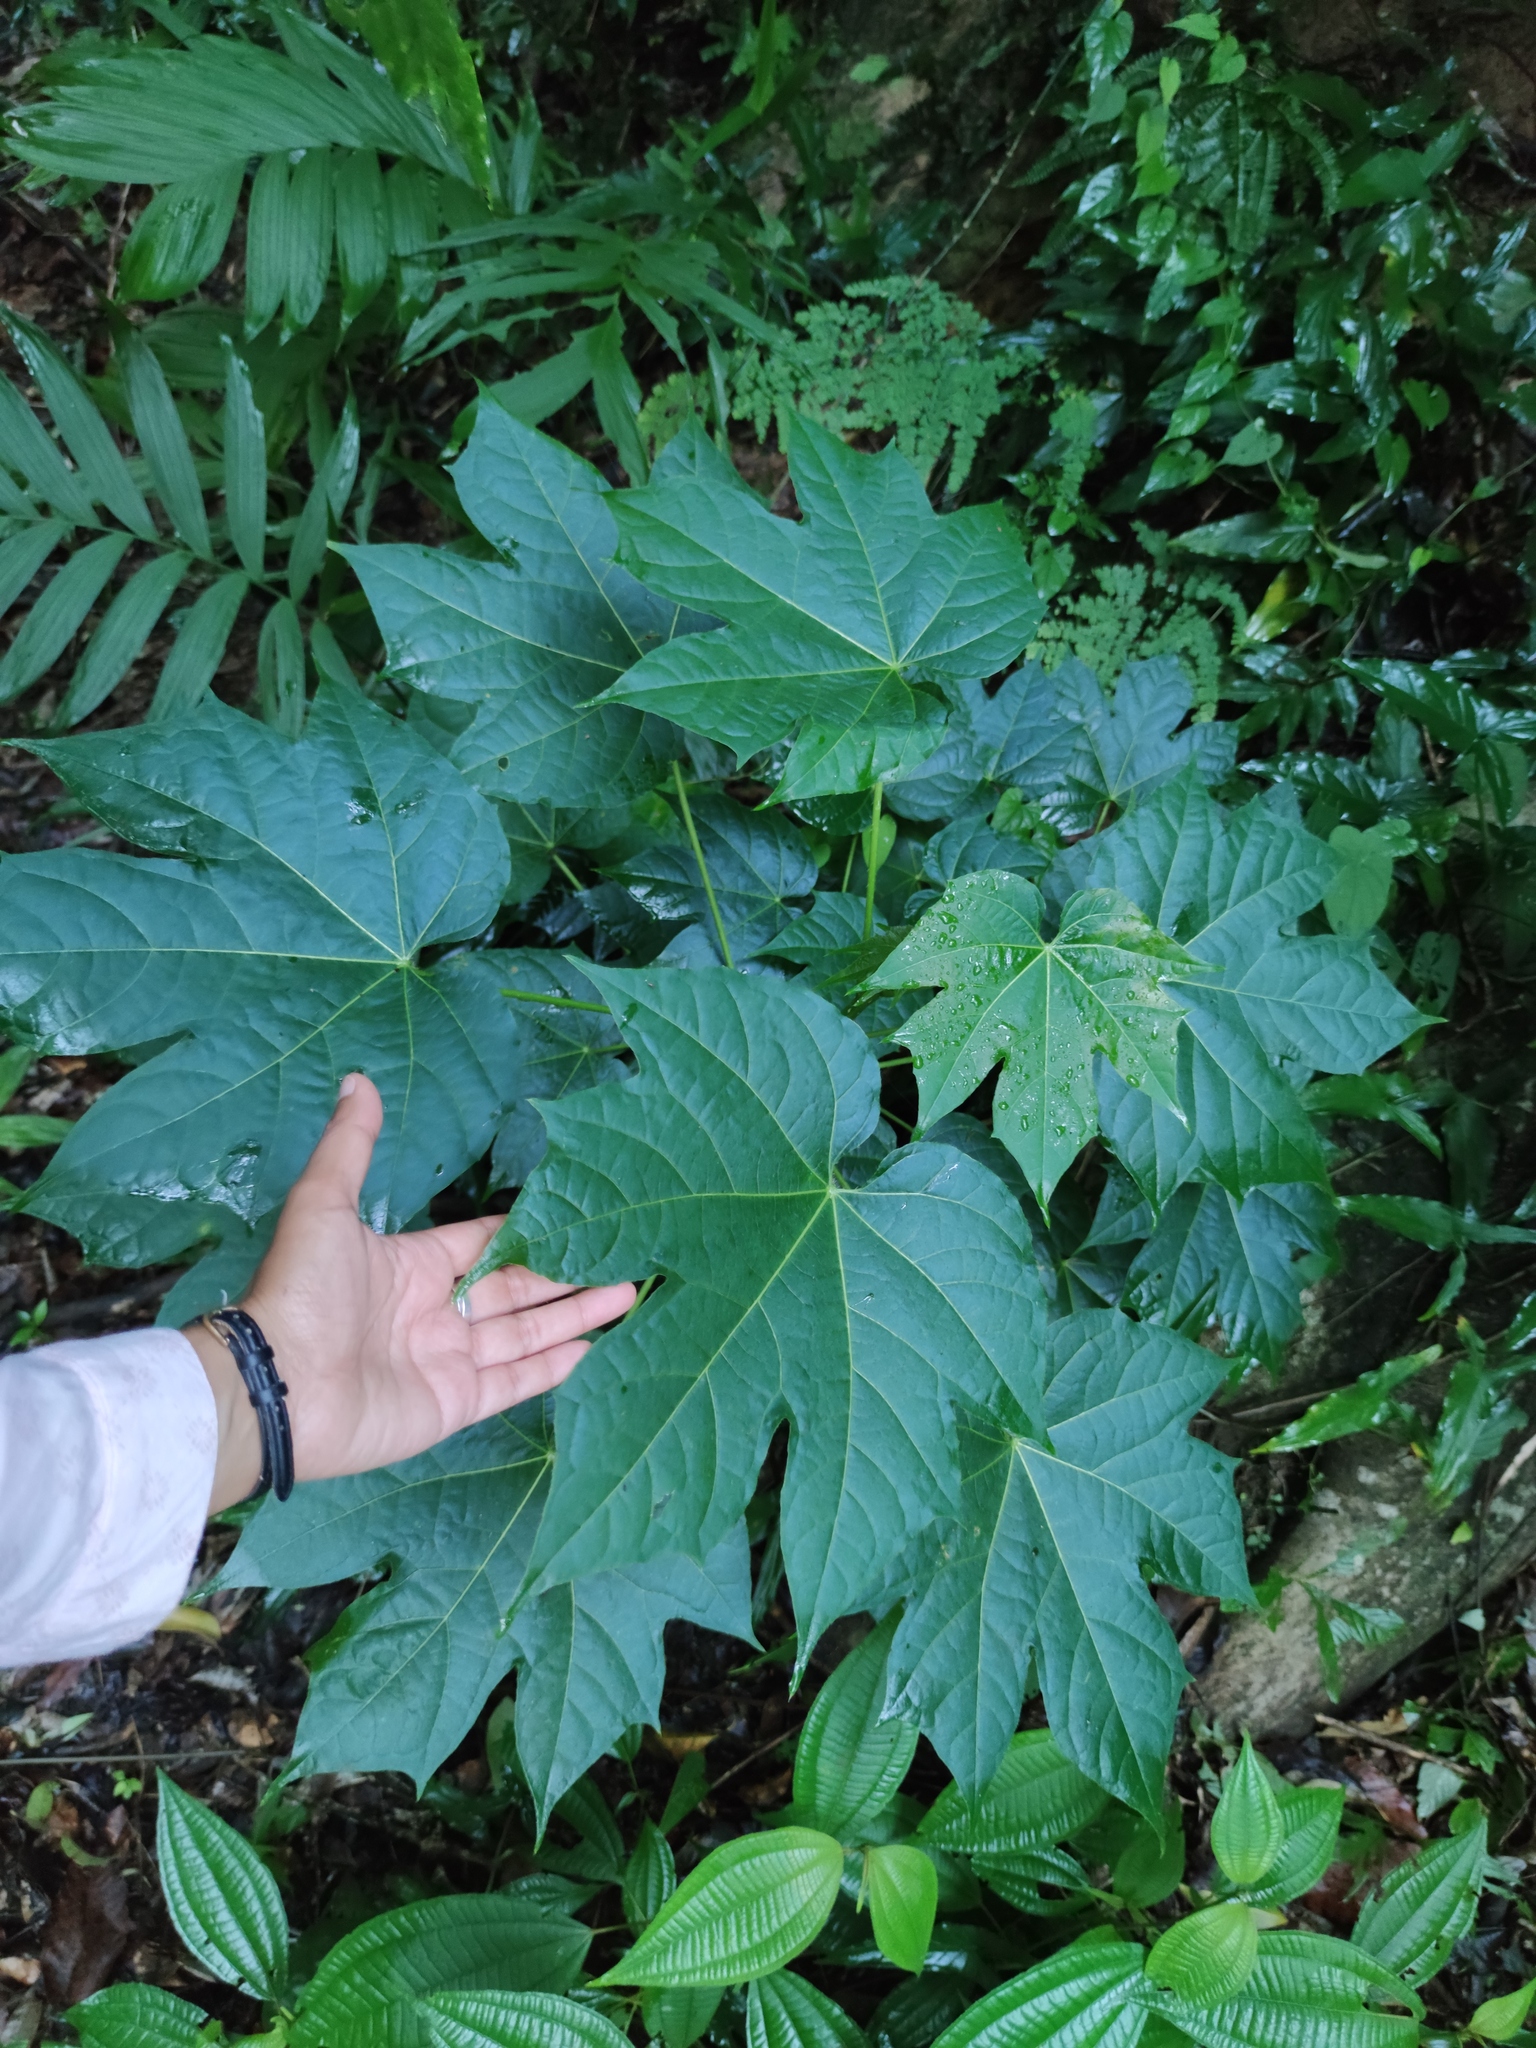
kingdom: Plantae
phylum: Tracheophyta
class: Magnoliopsida
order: Malpighiales
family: Euphorbiaceae
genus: Cnidoscolus
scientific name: Cnidoscolus multilobus
